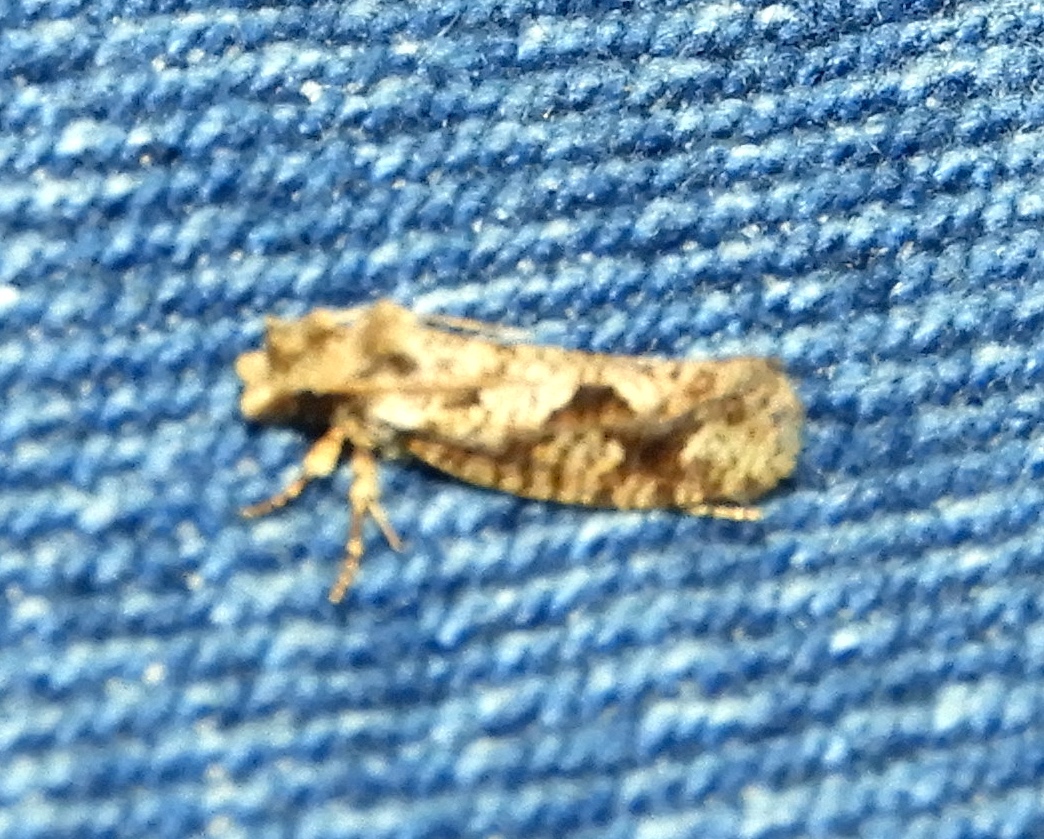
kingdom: Animalia
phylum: Arthropoda
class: Insecta
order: Lepidoptera
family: Tineidae
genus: Amydria
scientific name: Amydria
